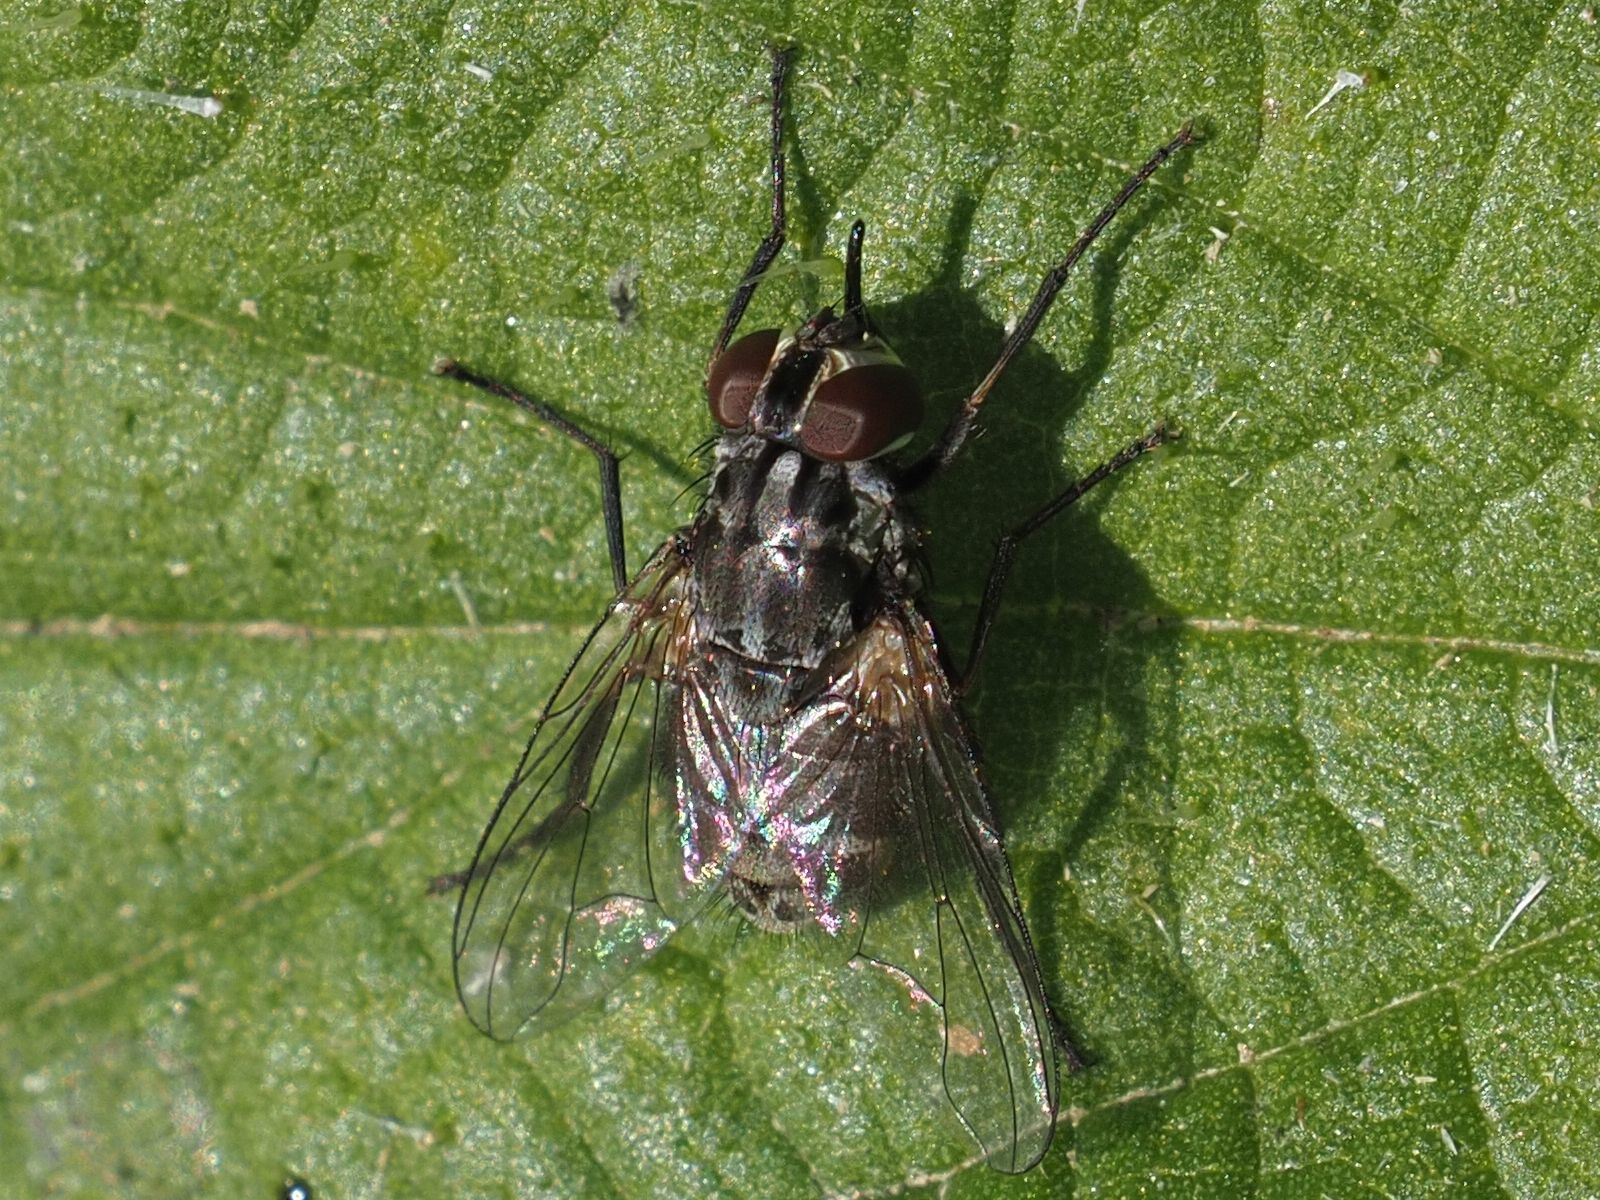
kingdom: Animalia
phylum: Arthropoda
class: Insecta
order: Diptera
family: Muscidae
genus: Stomoxys
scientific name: Stomoxys calcitrans
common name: Stable fly
